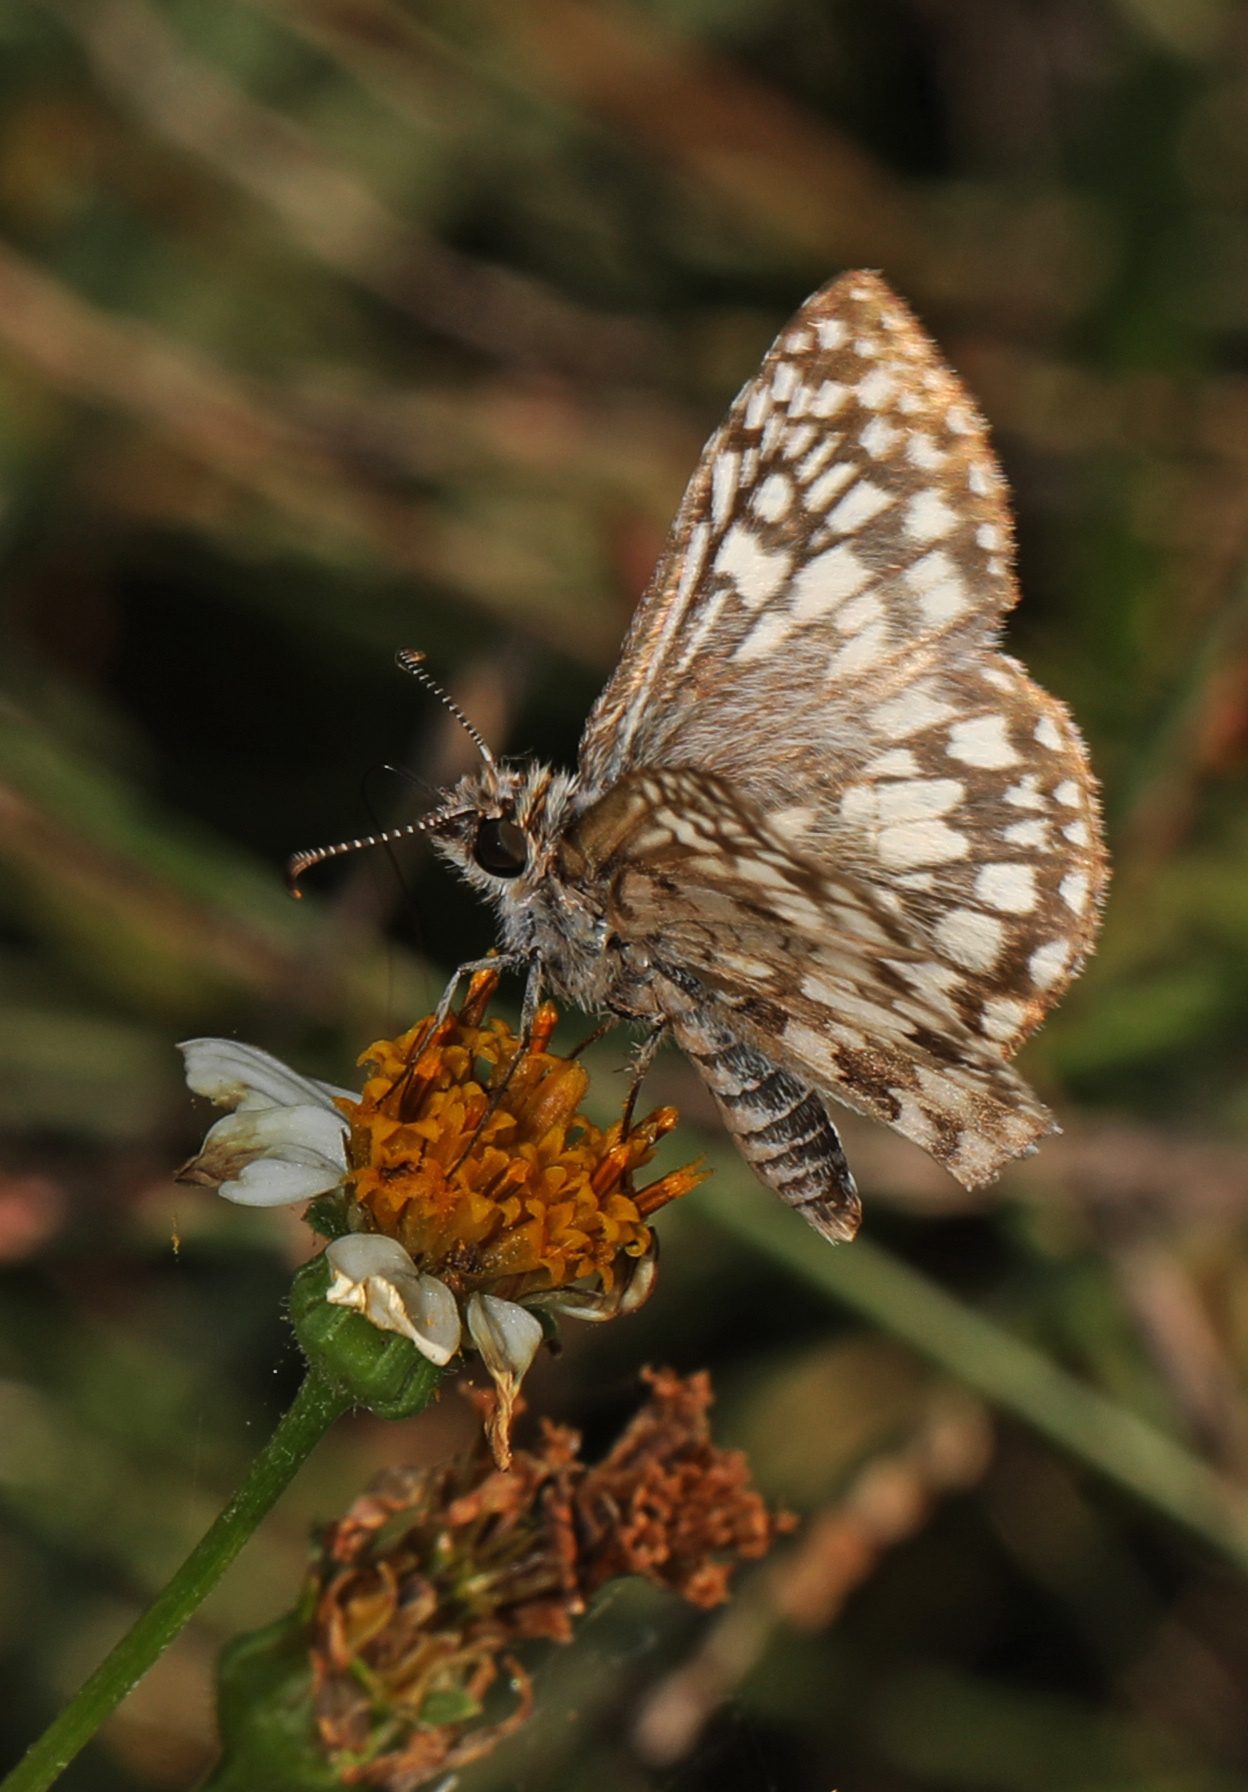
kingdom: Animalia
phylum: Arthropoda
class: Insecta
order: Lepidoptera
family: Hesperiidae
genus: Pyrgus
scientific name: Pyrgus oileus
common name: Tropical checkered-skipper
